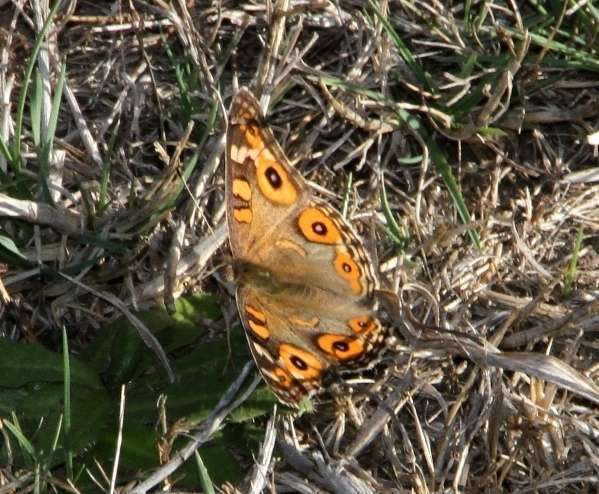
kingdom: Animalia
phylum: Arthropoda
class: Insecta
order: Lepidoptera
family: Nymphalidae
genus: Junonia
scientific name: Junonia villida
